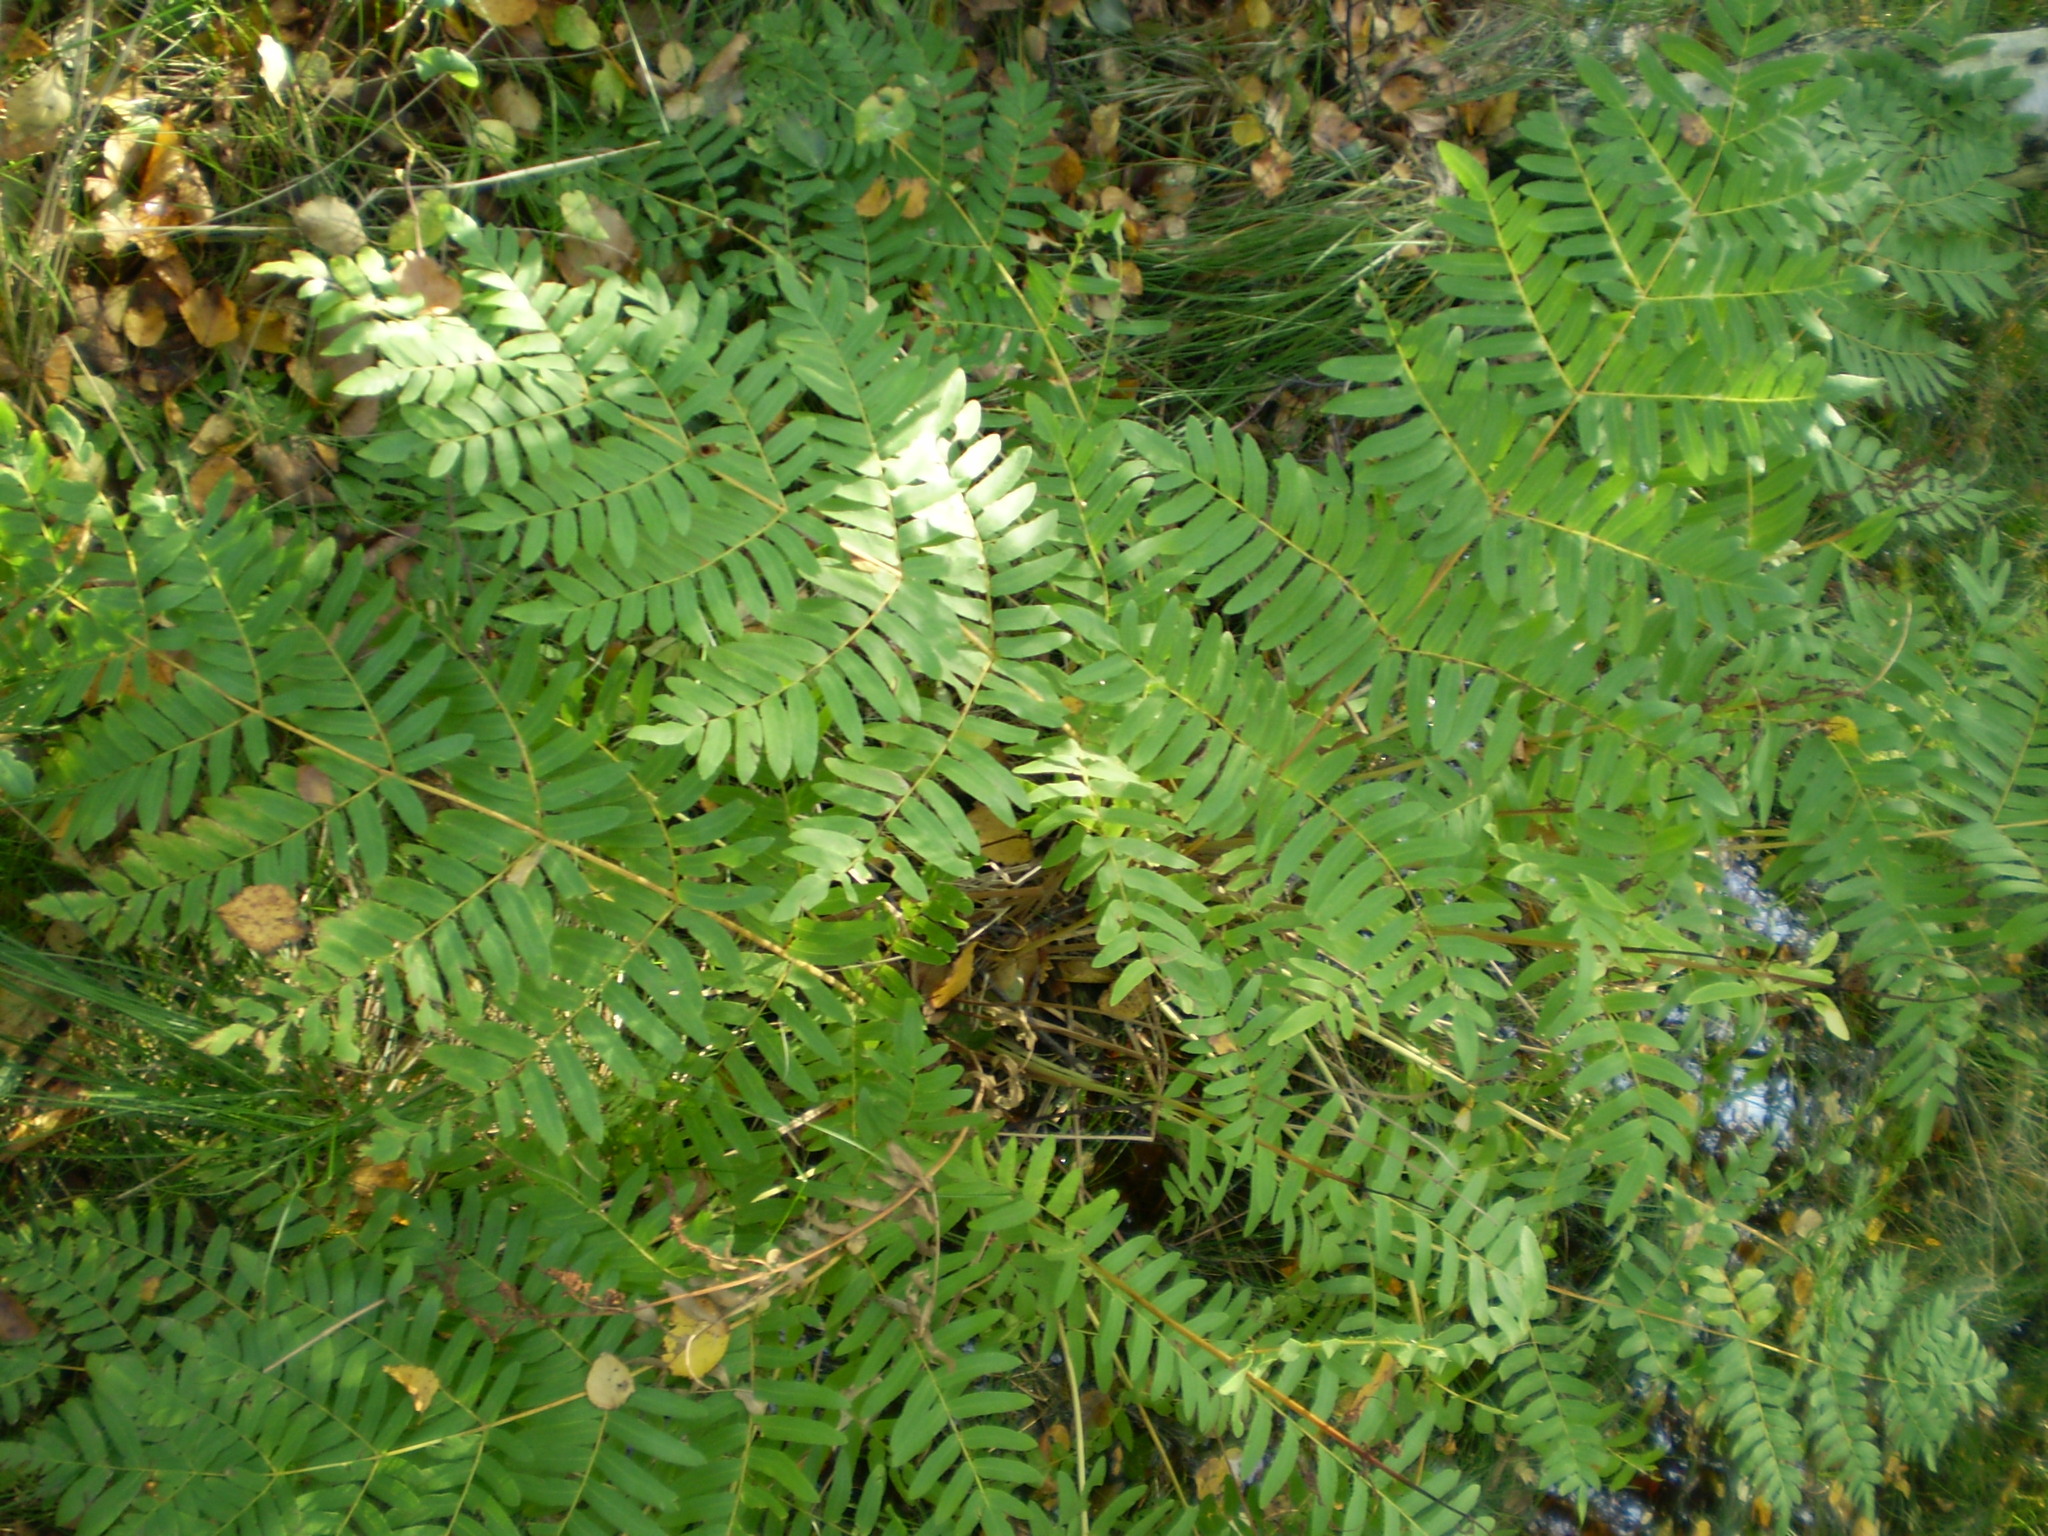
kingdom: Plantae
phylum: Tracheophyta
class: Polypodiopsida
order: Osmundales
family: Osmundaceae
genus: Osmunda
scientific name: Osmunda regalis
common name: Royal fern
